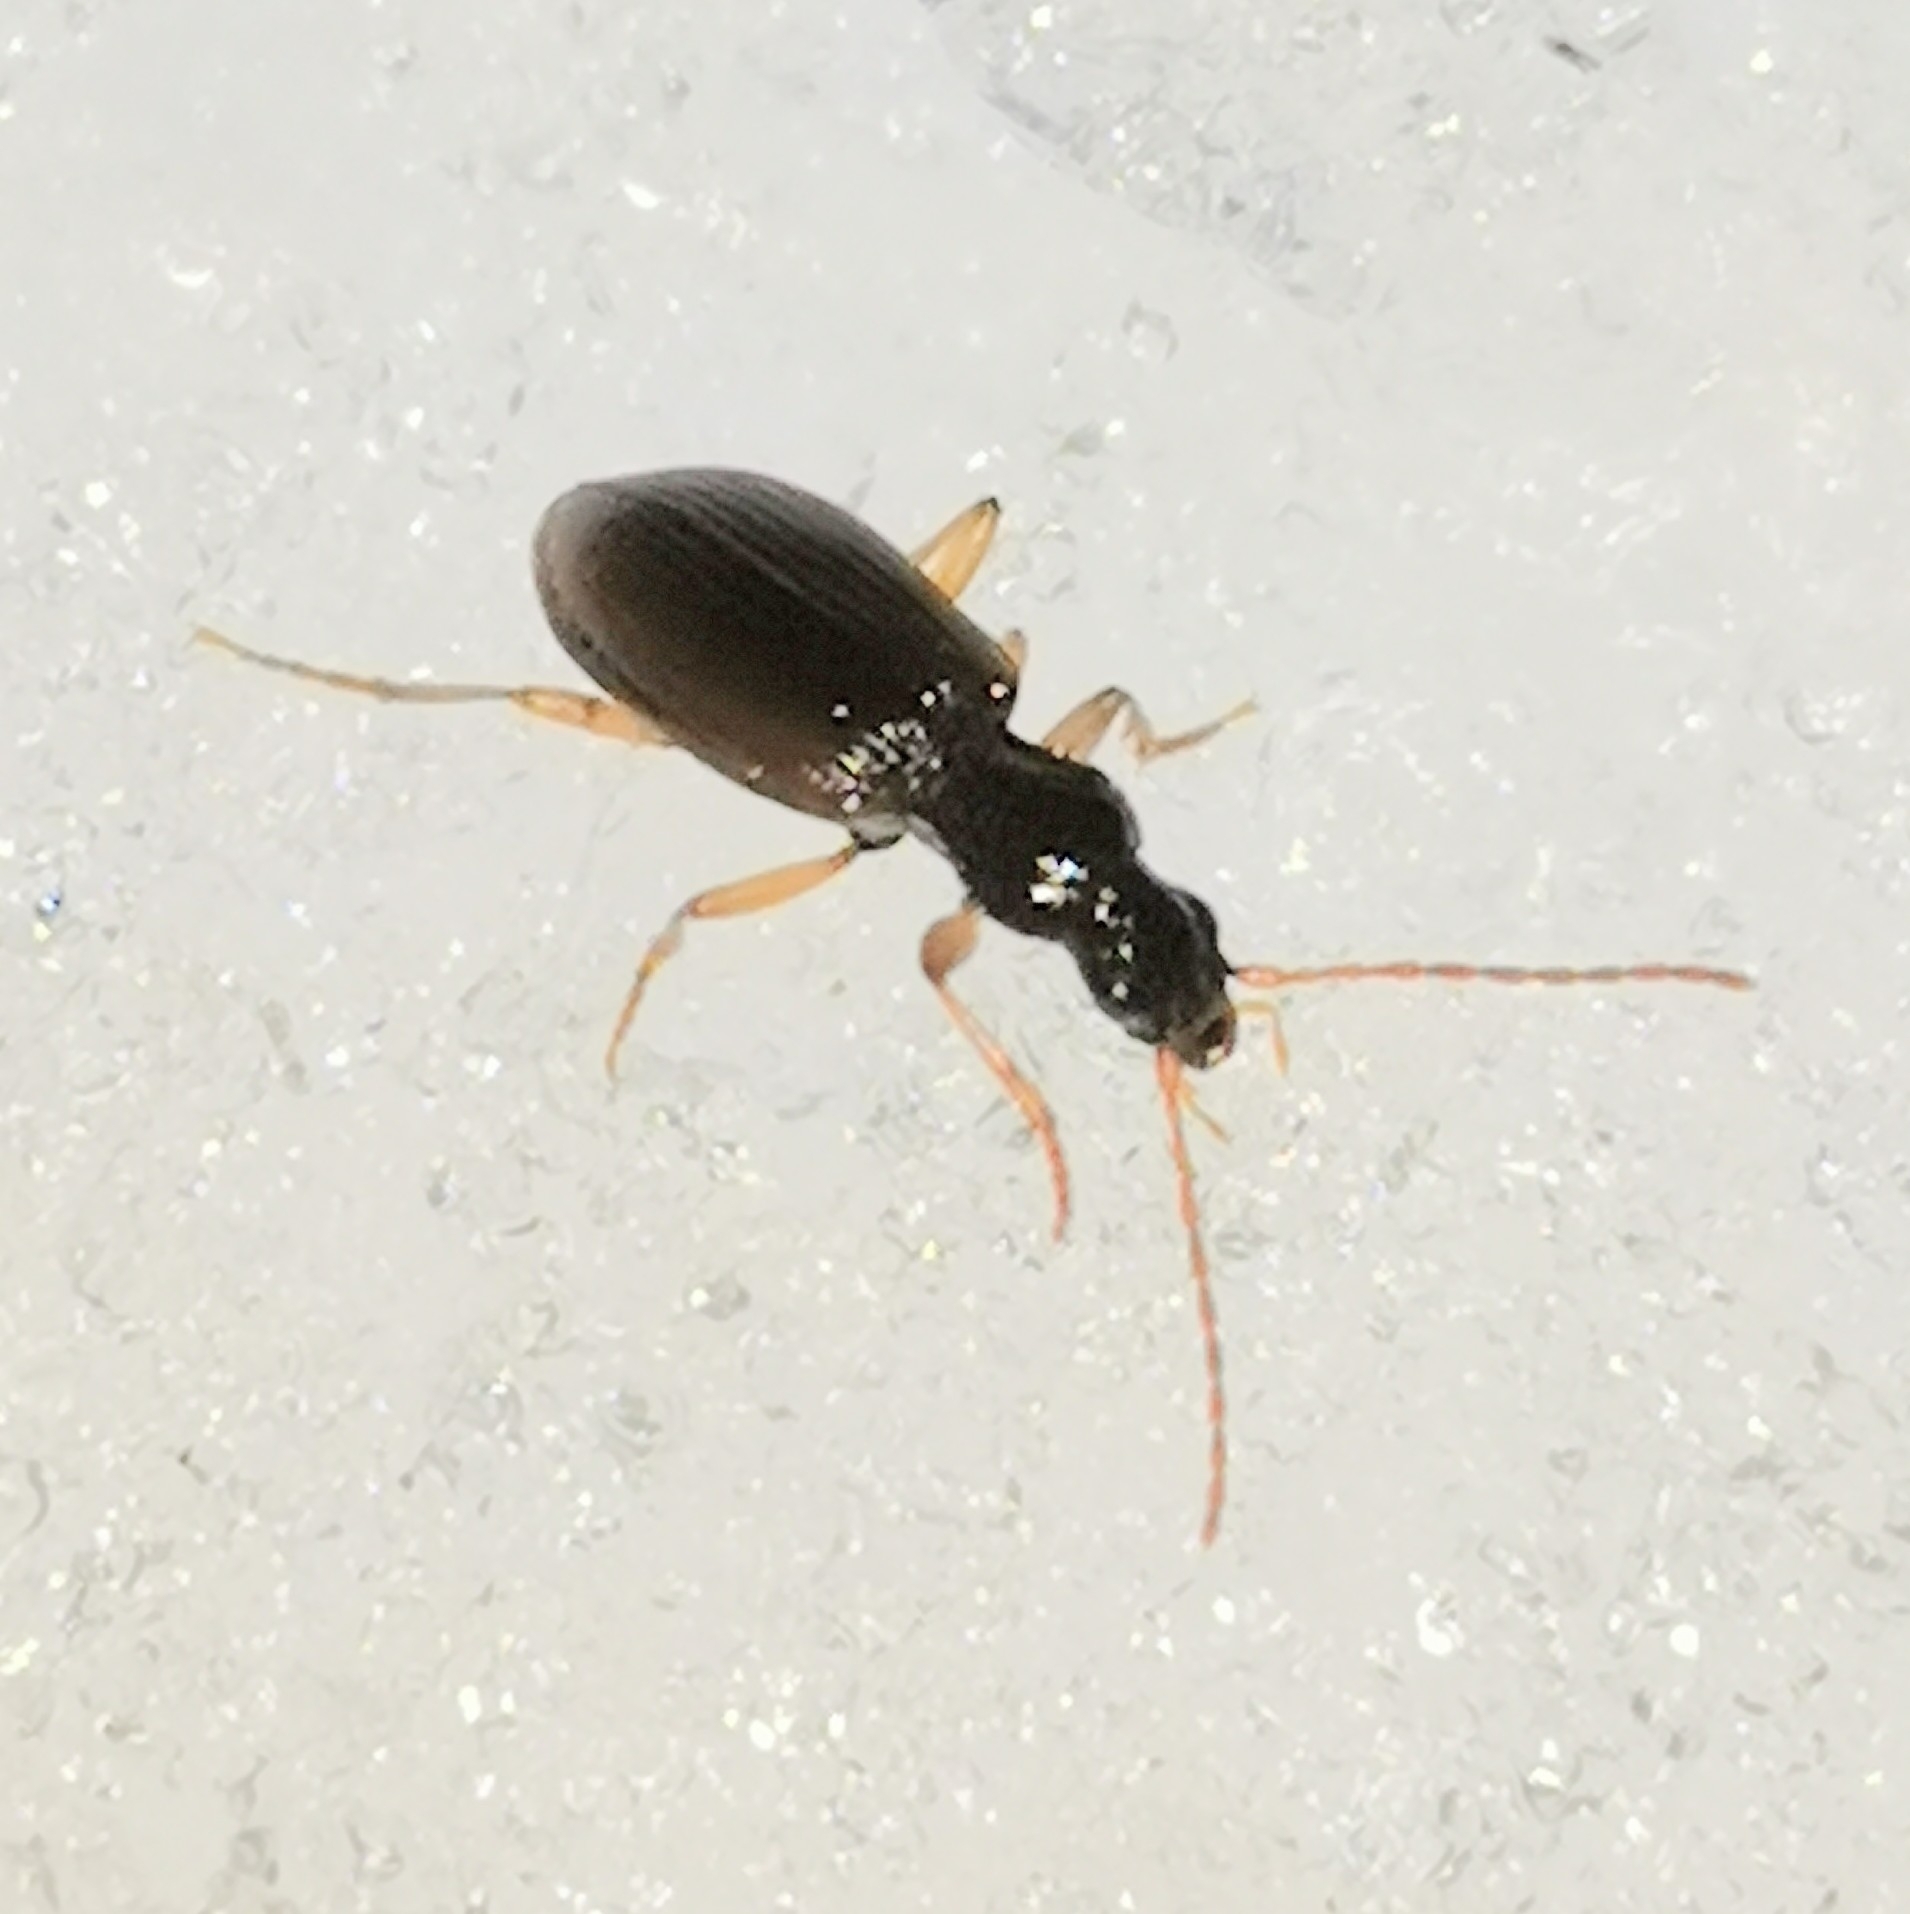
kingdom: Animalia
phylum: Arthropoda
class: Insecta
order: Coleoptera
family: Carabidae
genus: Oxypselaphus
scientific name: Oxypselaphus obscurus
